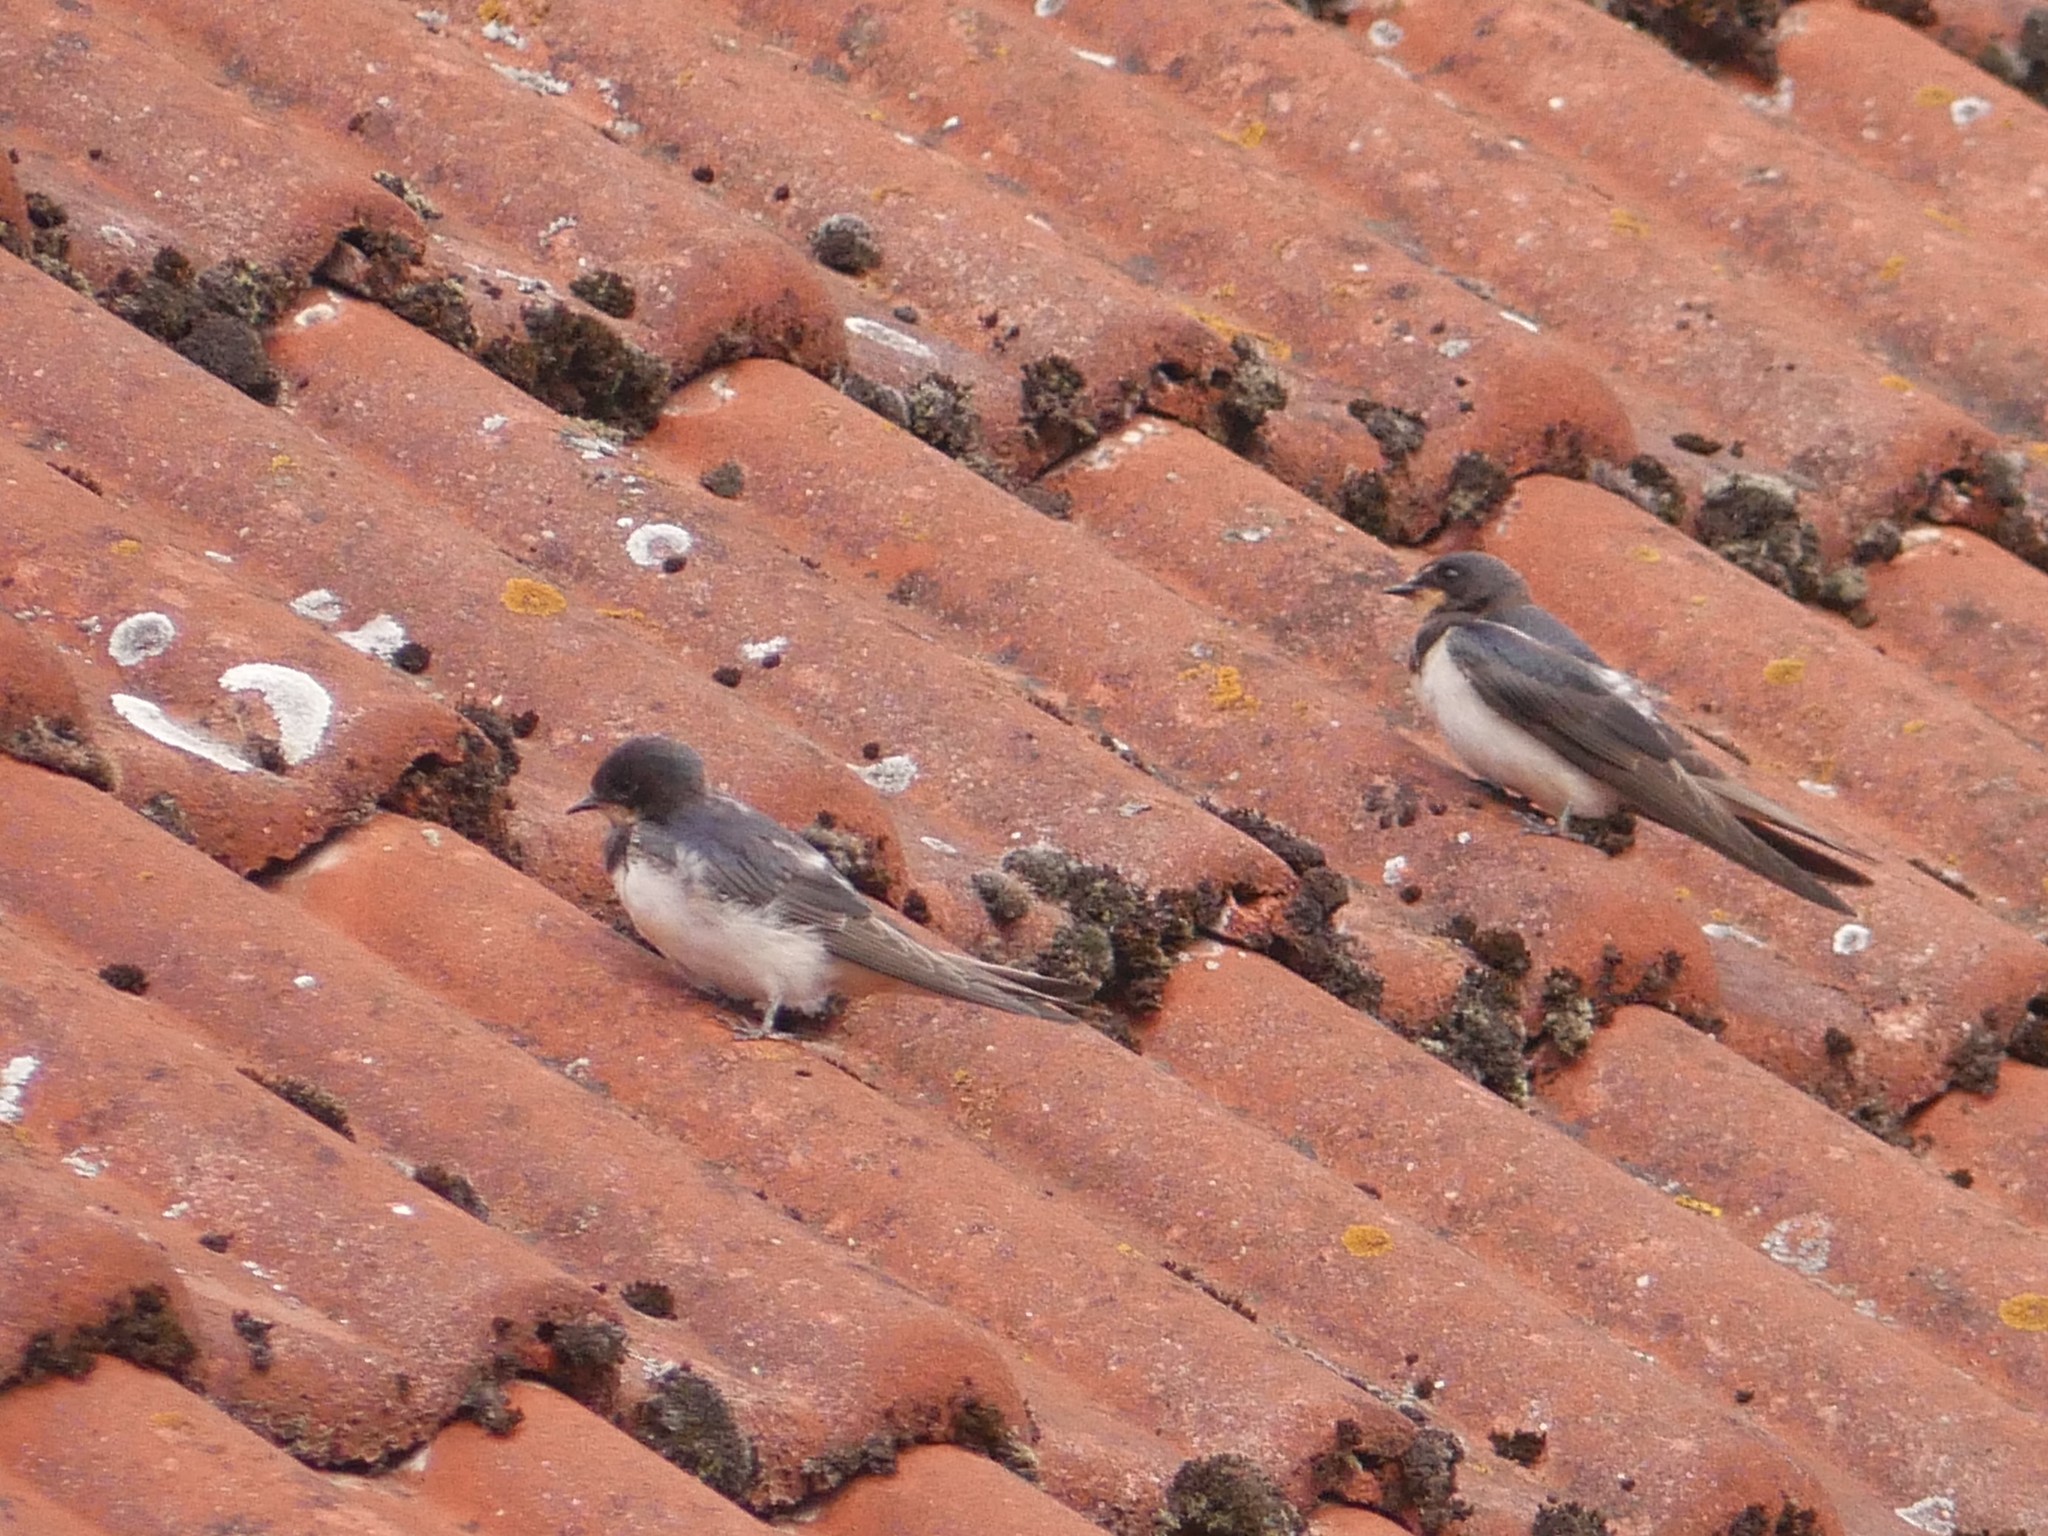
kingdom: Animalia
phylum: Chordata
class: Aves
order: Passeriformes
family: Hirundinidae
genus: Hirundo
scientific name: Hirundo rustica
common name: Barn swallow
